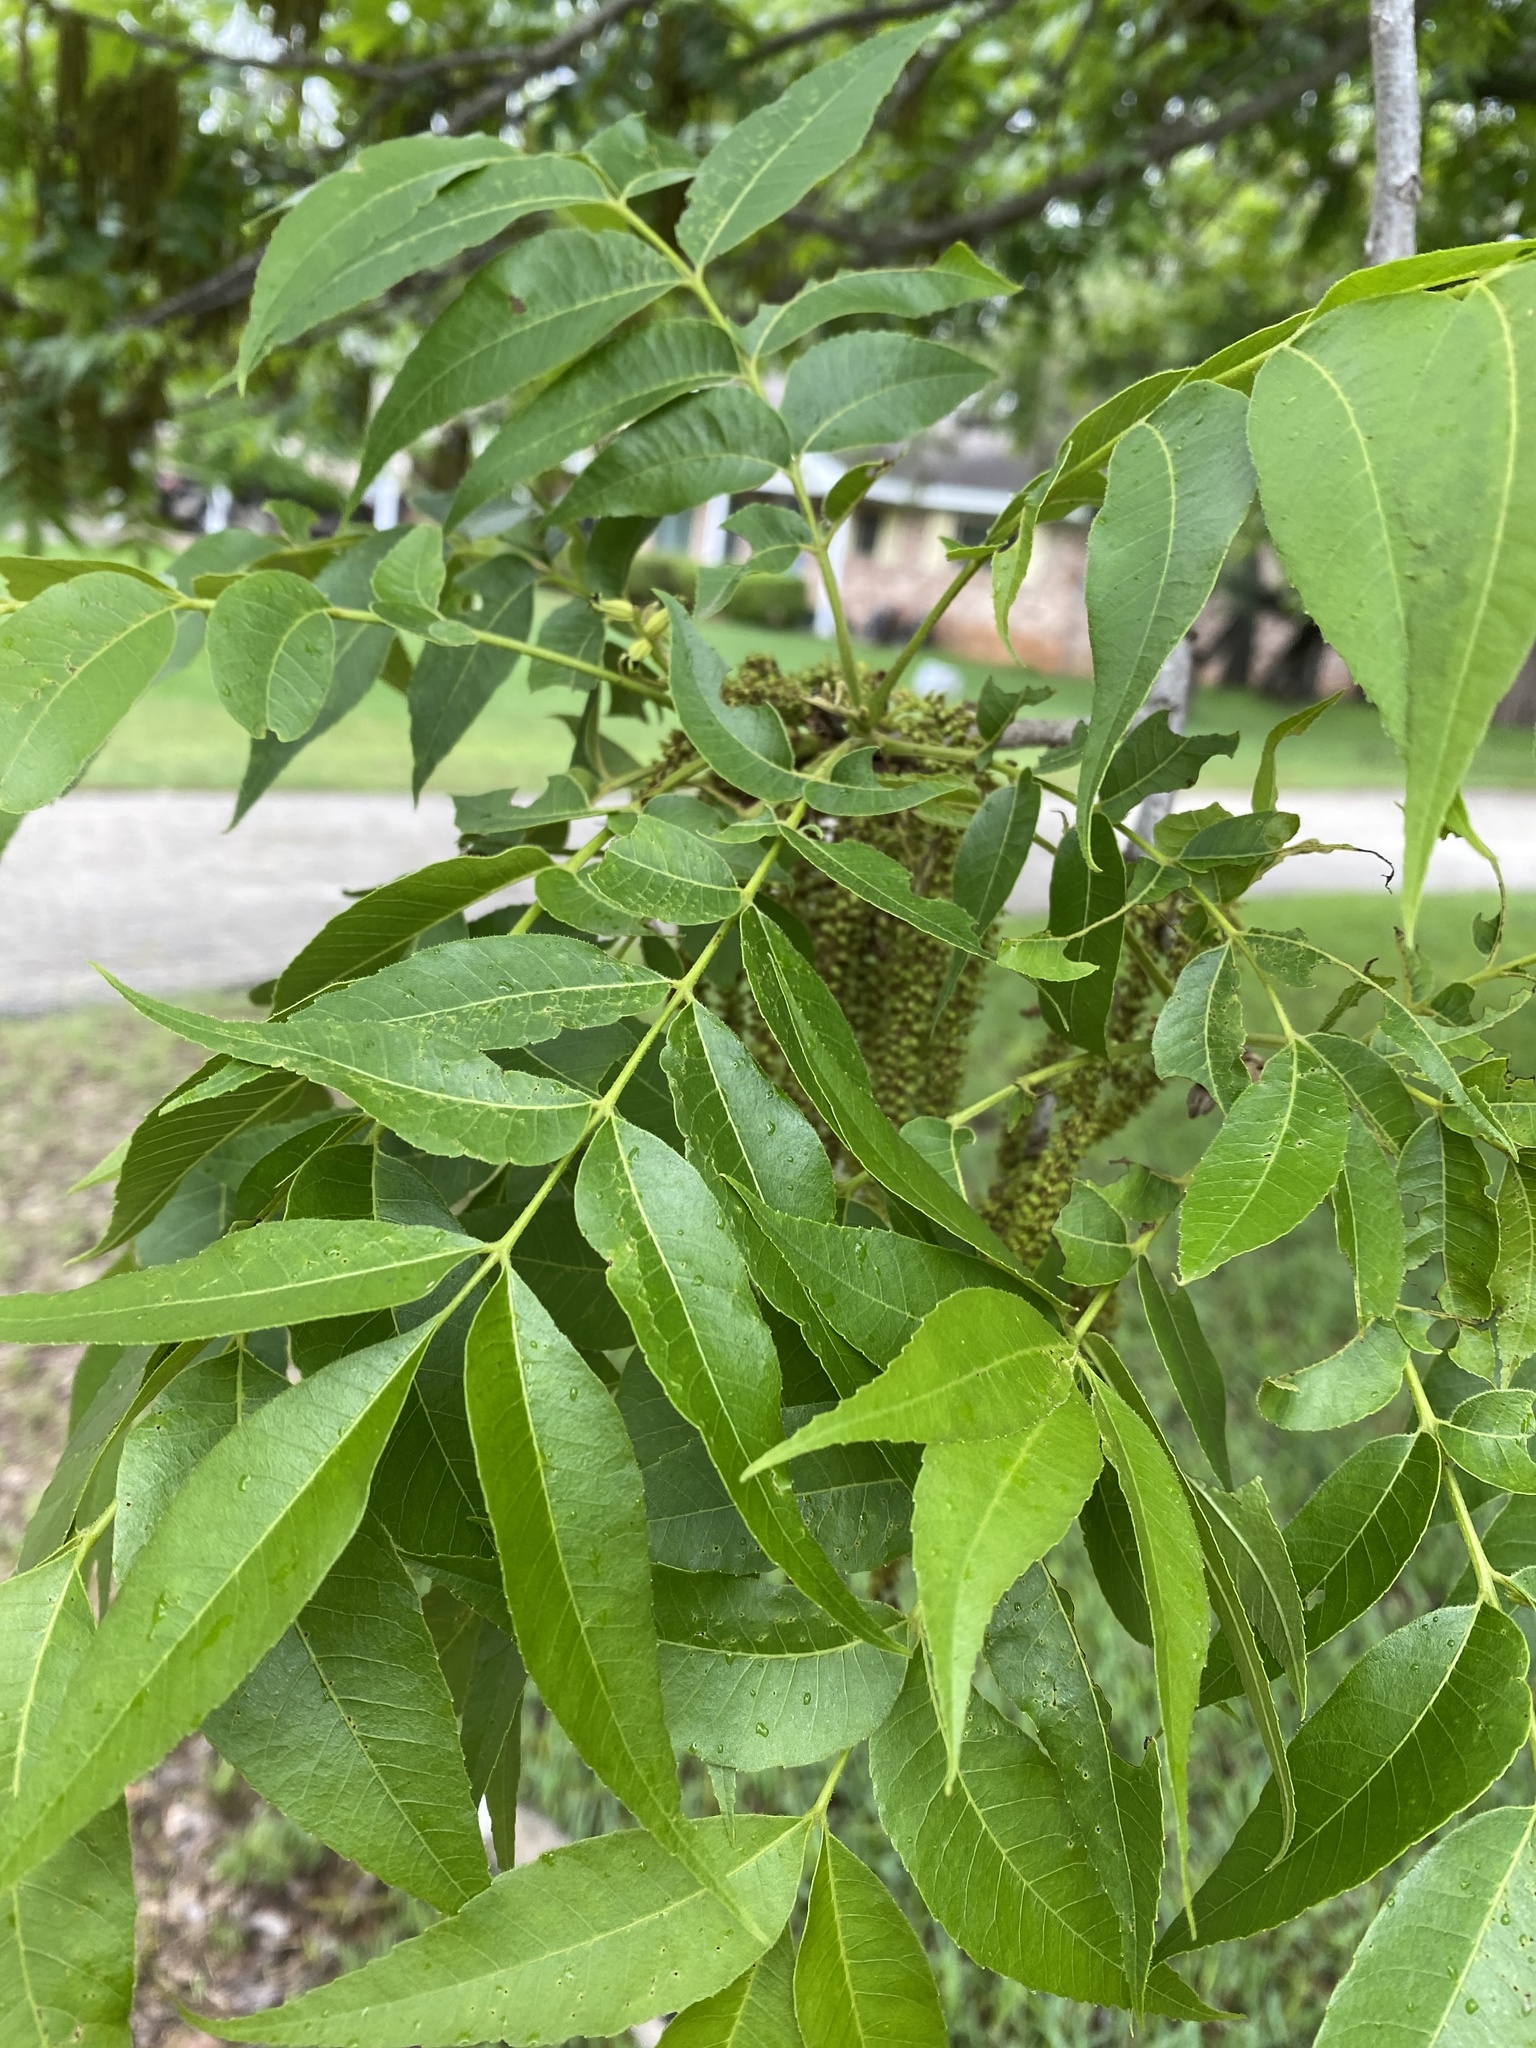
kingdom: Plantae
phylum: Tracheophyta
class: Magnoliopsida
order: Fagales
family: Juglandaceae
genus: Carya
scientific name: Carya illinoinensis
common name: Pecan
